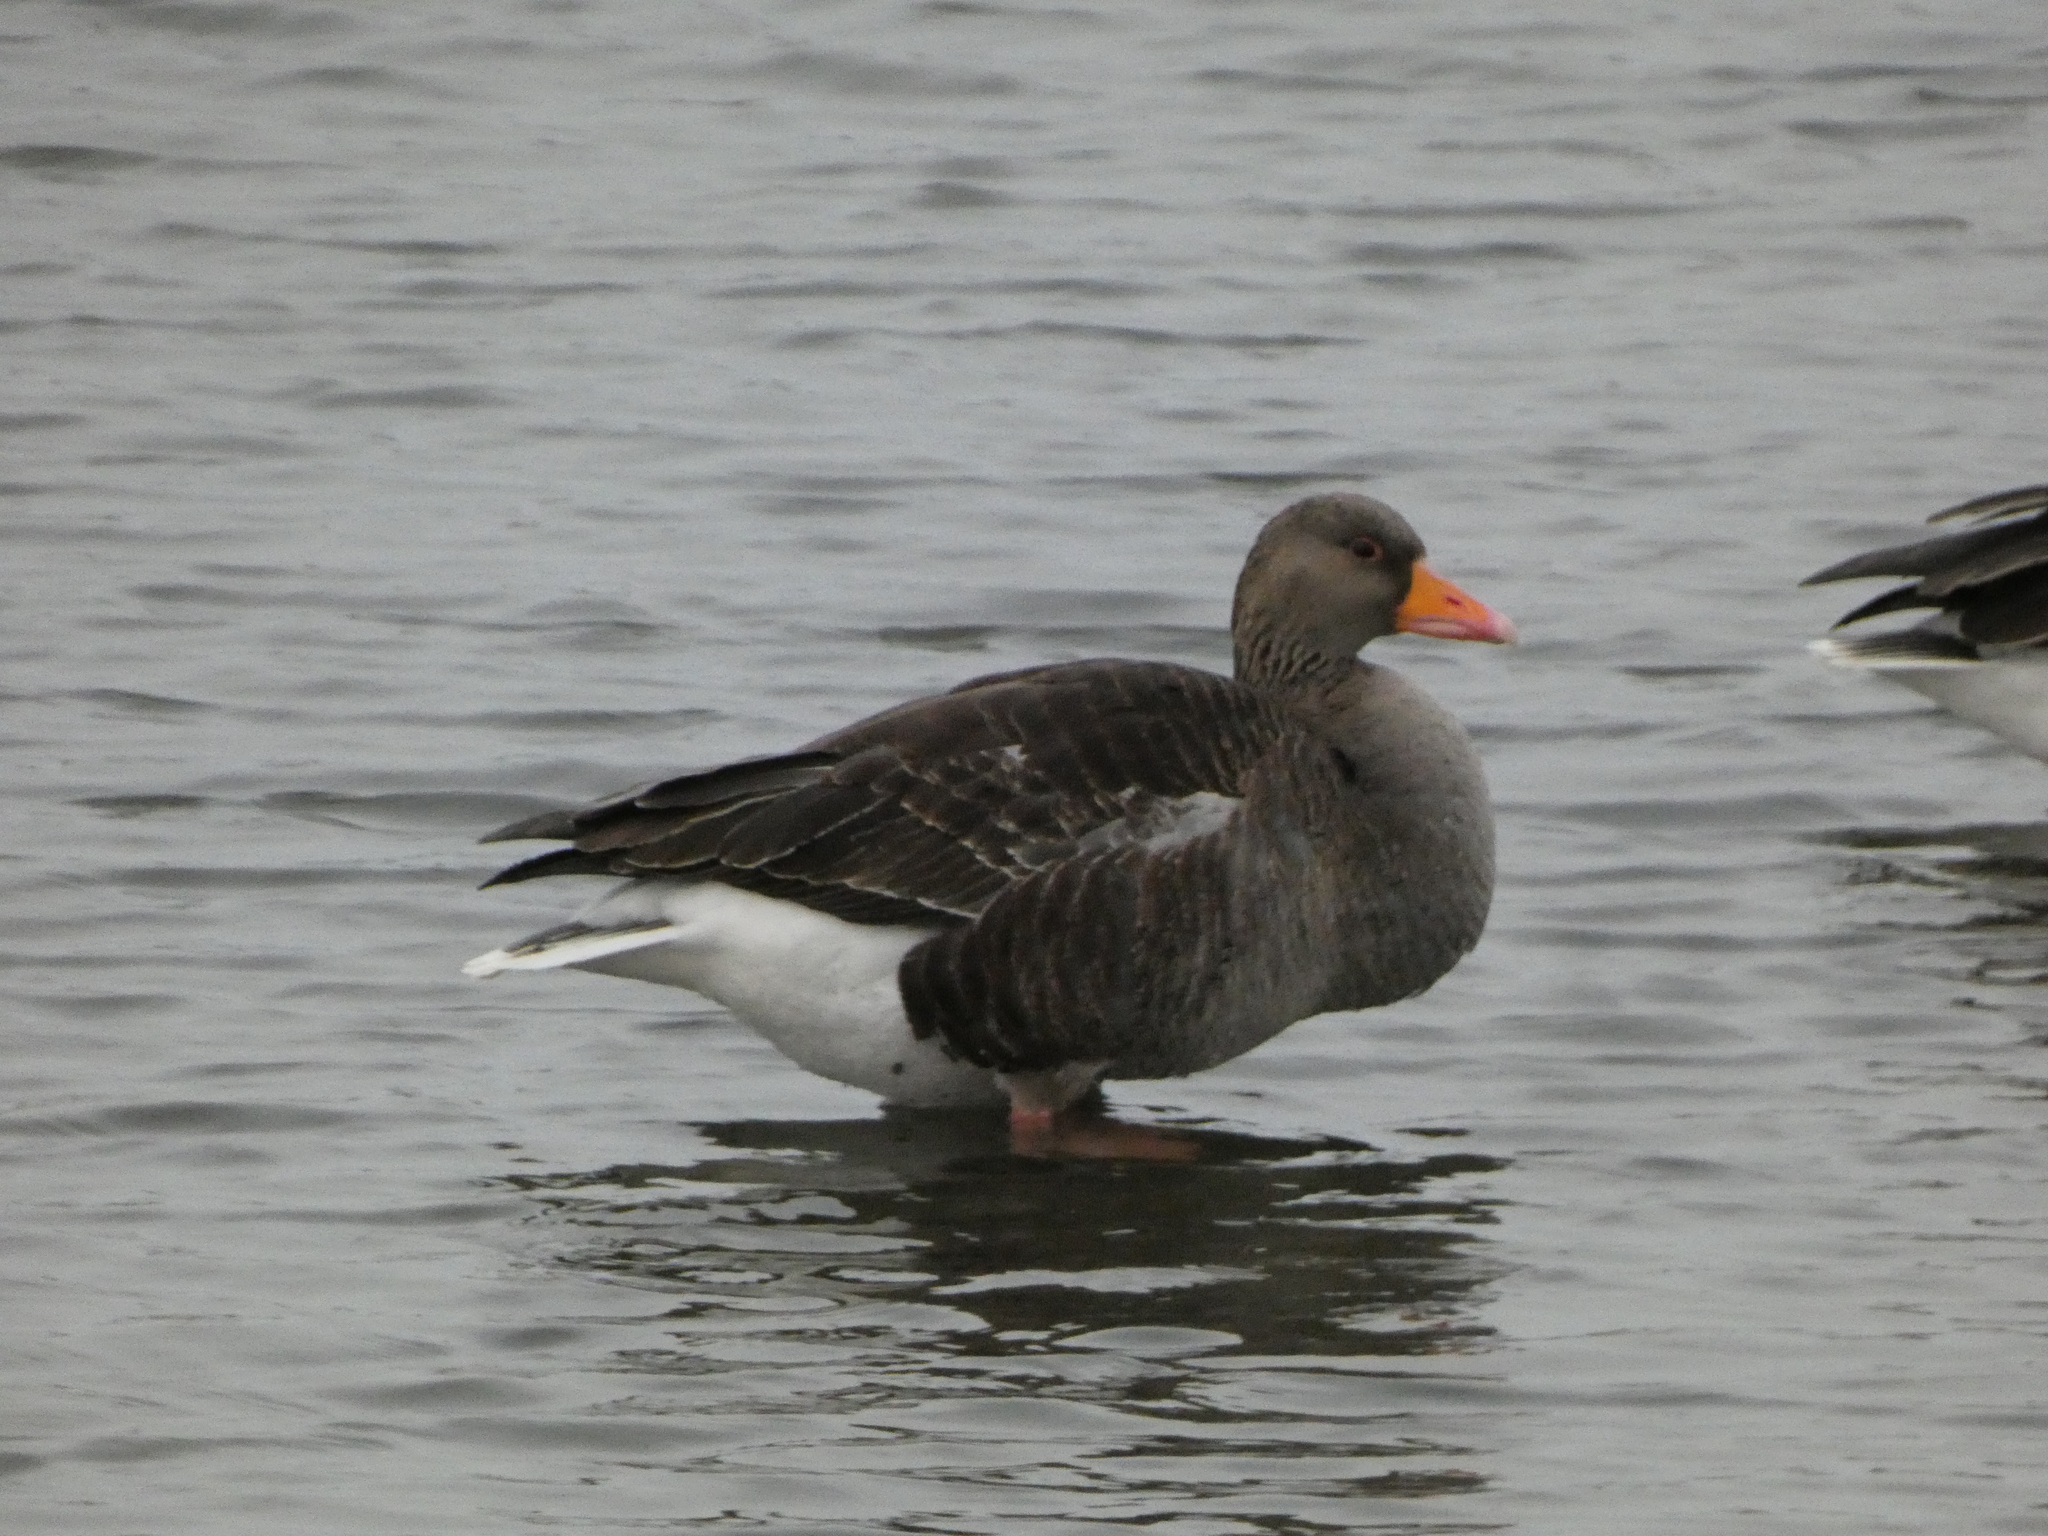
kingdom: Animalia
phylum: Chordata
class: Aves
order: Anseriformes
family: Anatidae
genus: Anser
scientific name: Anser anser
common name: Greylag goose
